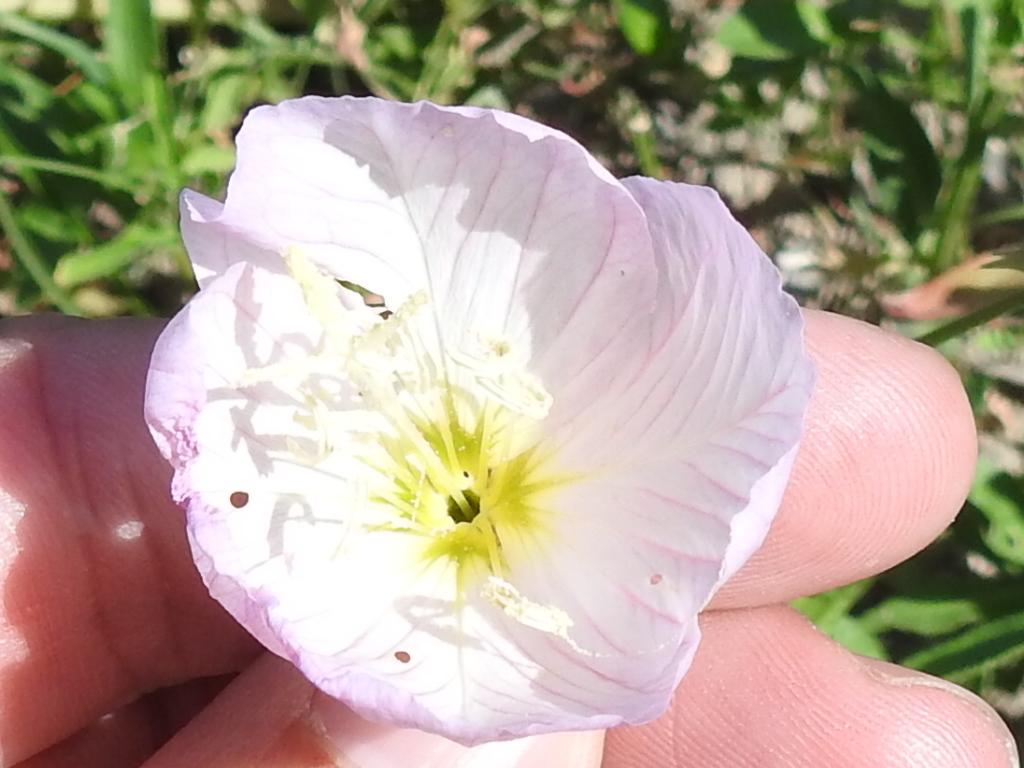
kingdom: Plantae
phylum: Tracheophyta
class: Magnoliopsida
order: Myrtales
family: Onagraceae
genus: Oenothera
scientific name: Oenothera speciosa
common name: White evening-primrose
